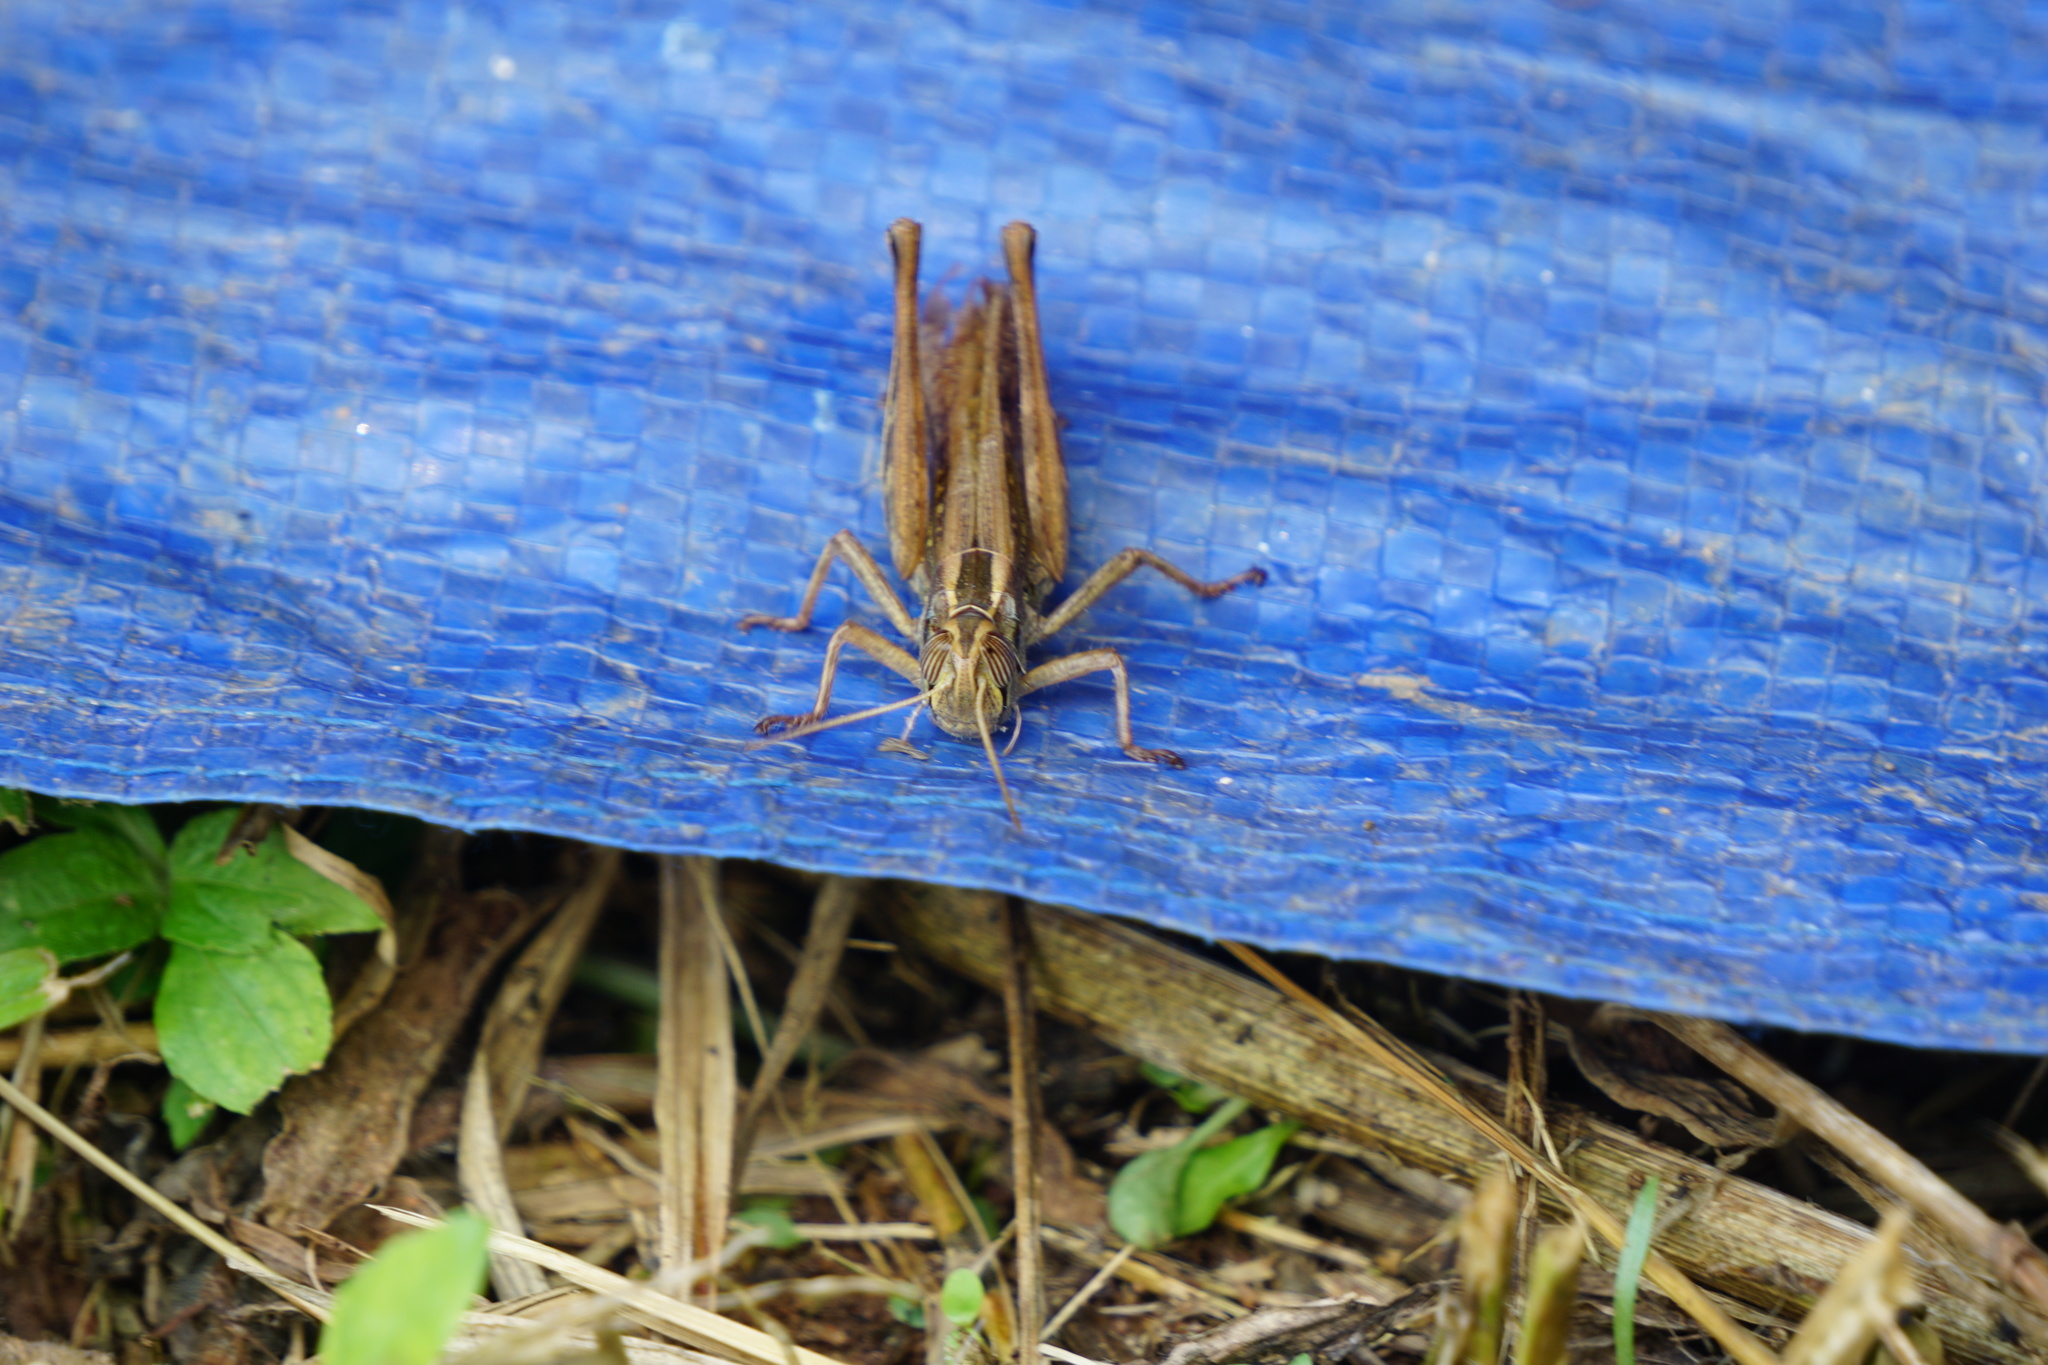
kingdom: Animalia
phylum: Arthropoda
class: Insecta
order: Orthoptera
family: Acrididae
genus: Eyprepocnemis
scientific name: Eyprepocnemis plorans
